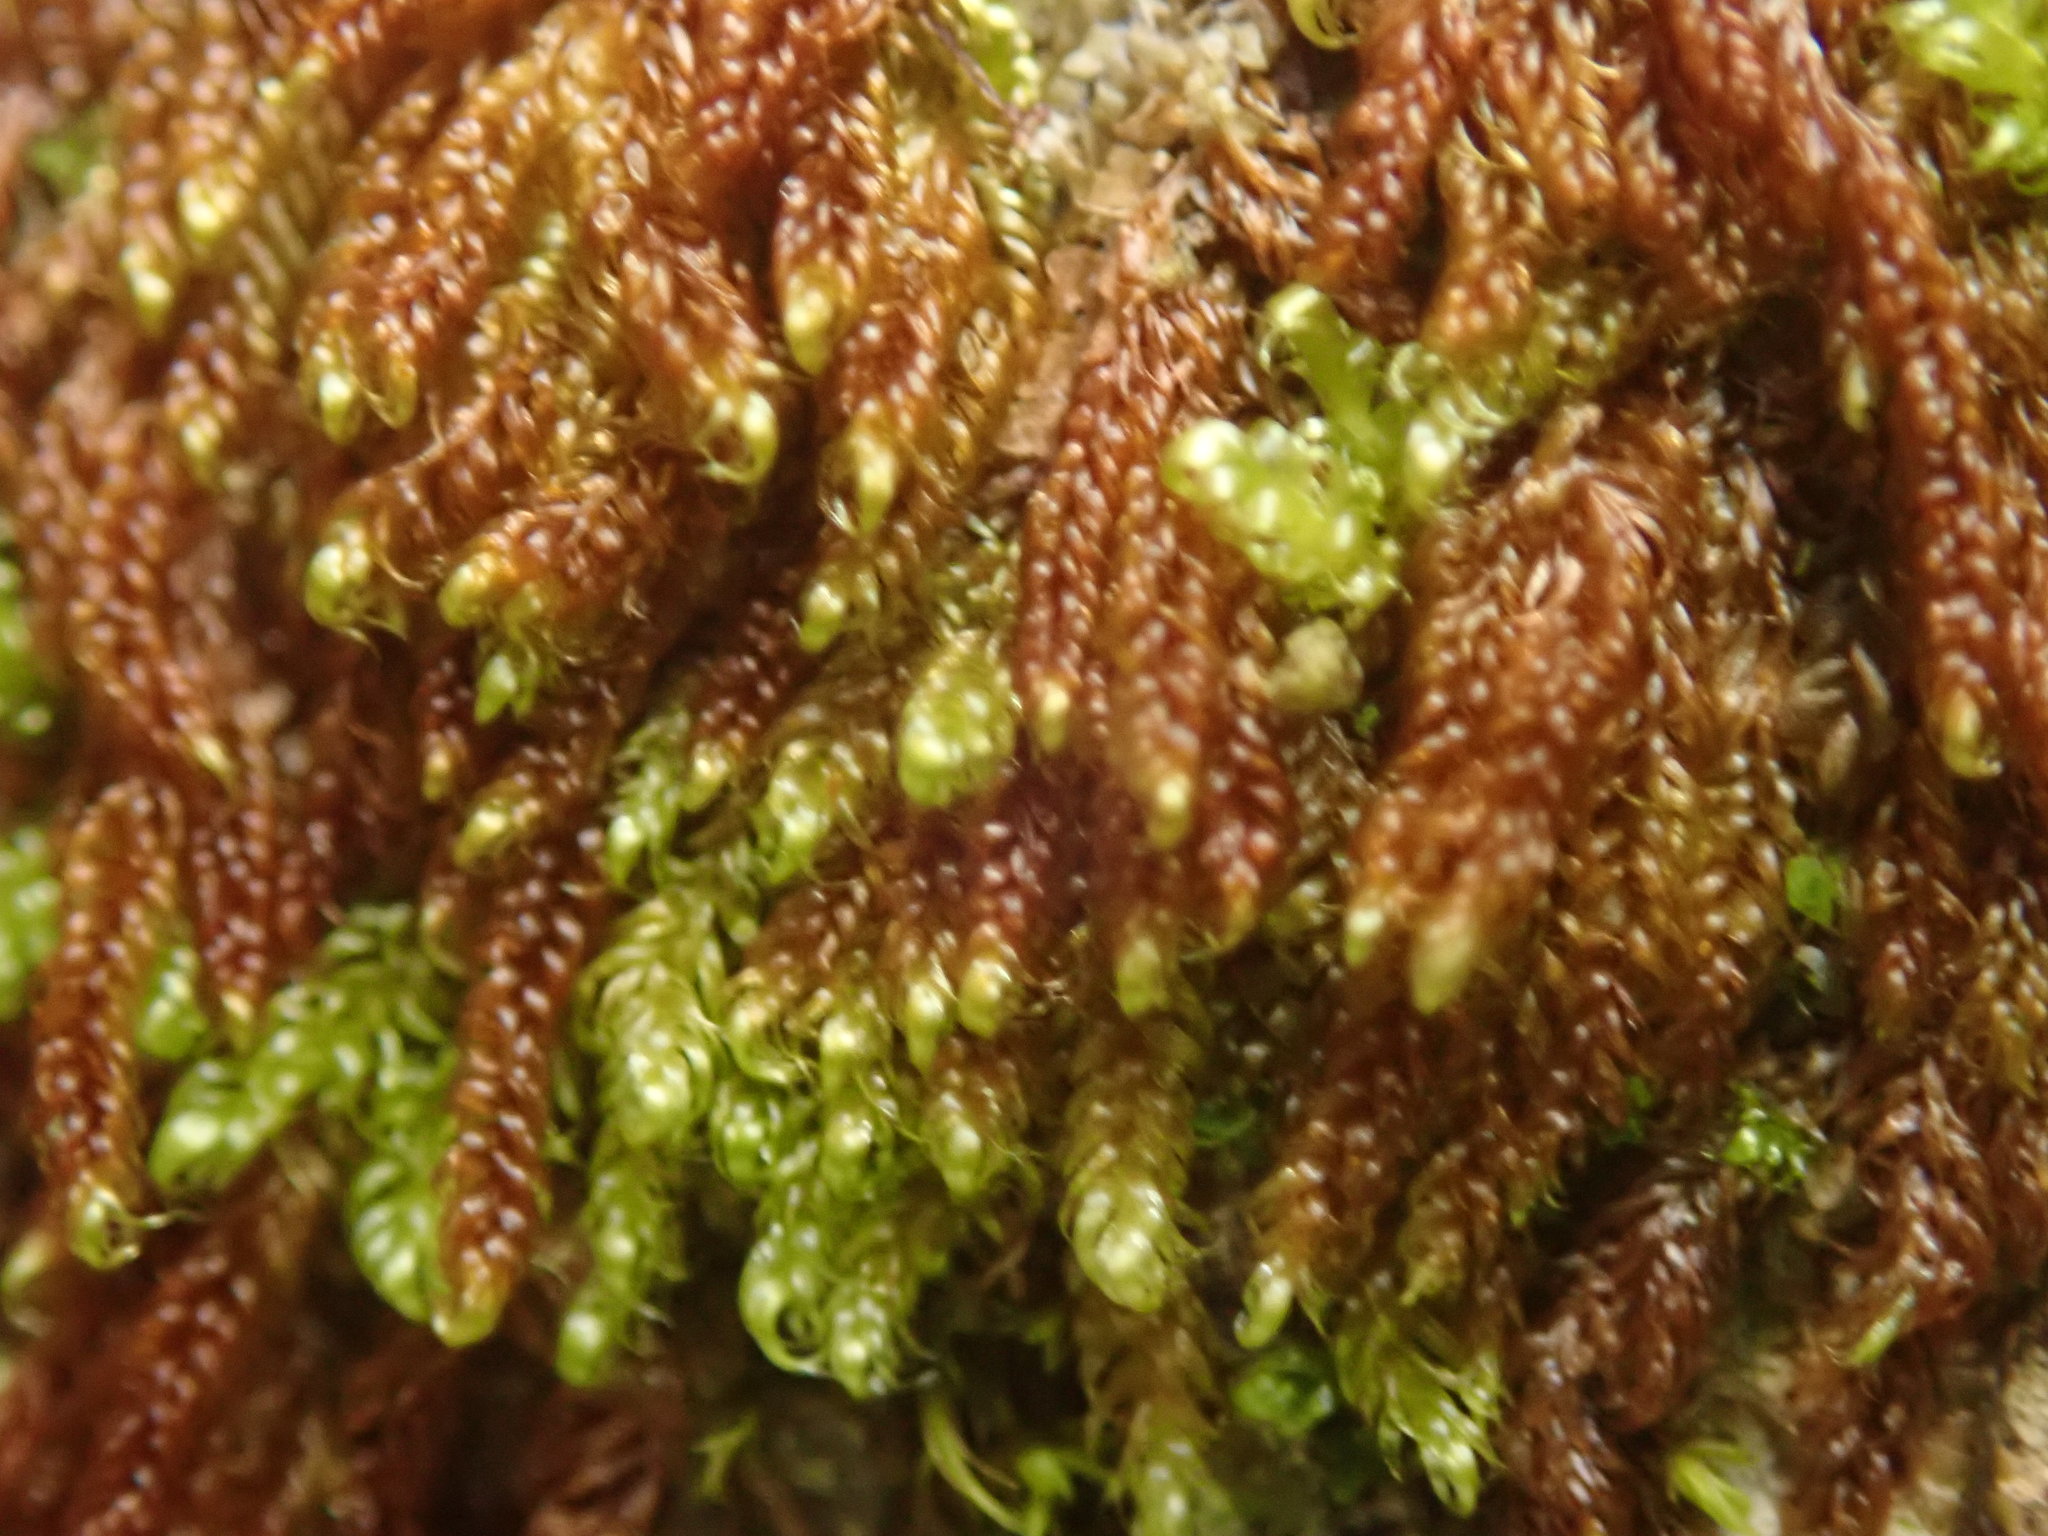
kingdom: Plantae
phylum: Bryophyta
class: Bryopsida
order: Hypnales
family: Pylaisiaceae
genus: Calliergonellopsis
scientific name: Calliergonellopsis dieckii
